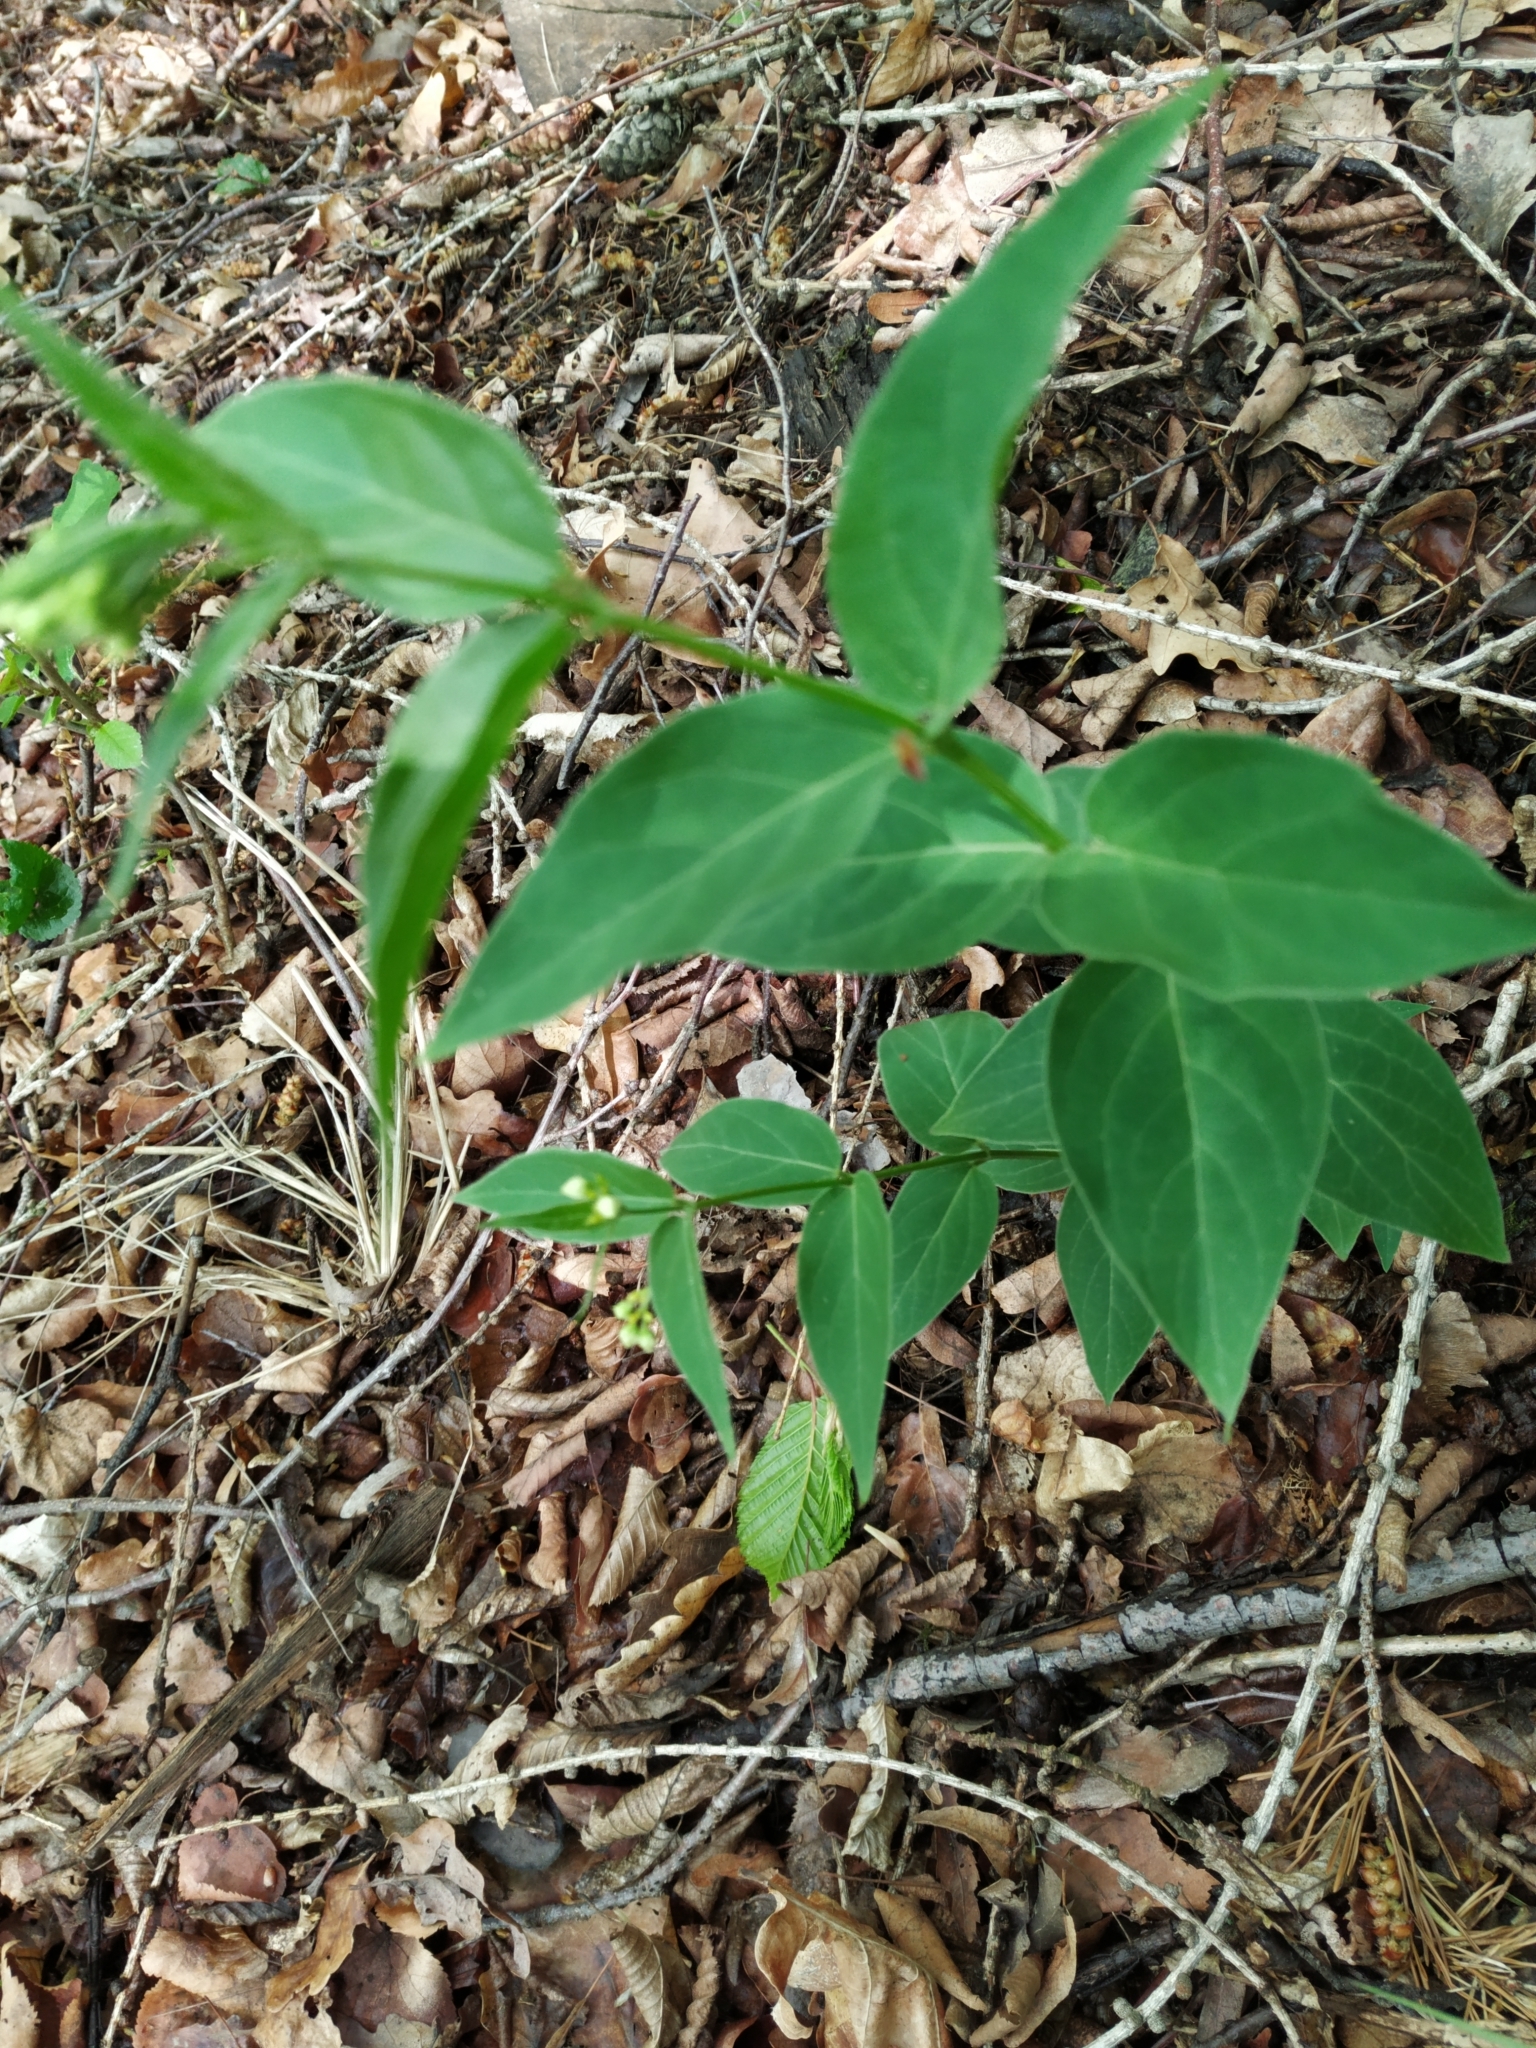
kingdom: Plantae
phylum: Tracheophyta
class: Magnoliopsida
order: Gentianales
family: Apocynaceae
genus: Vincetoxicum
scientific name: Vincetoxicum hirundinaria
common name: White swallowwort
